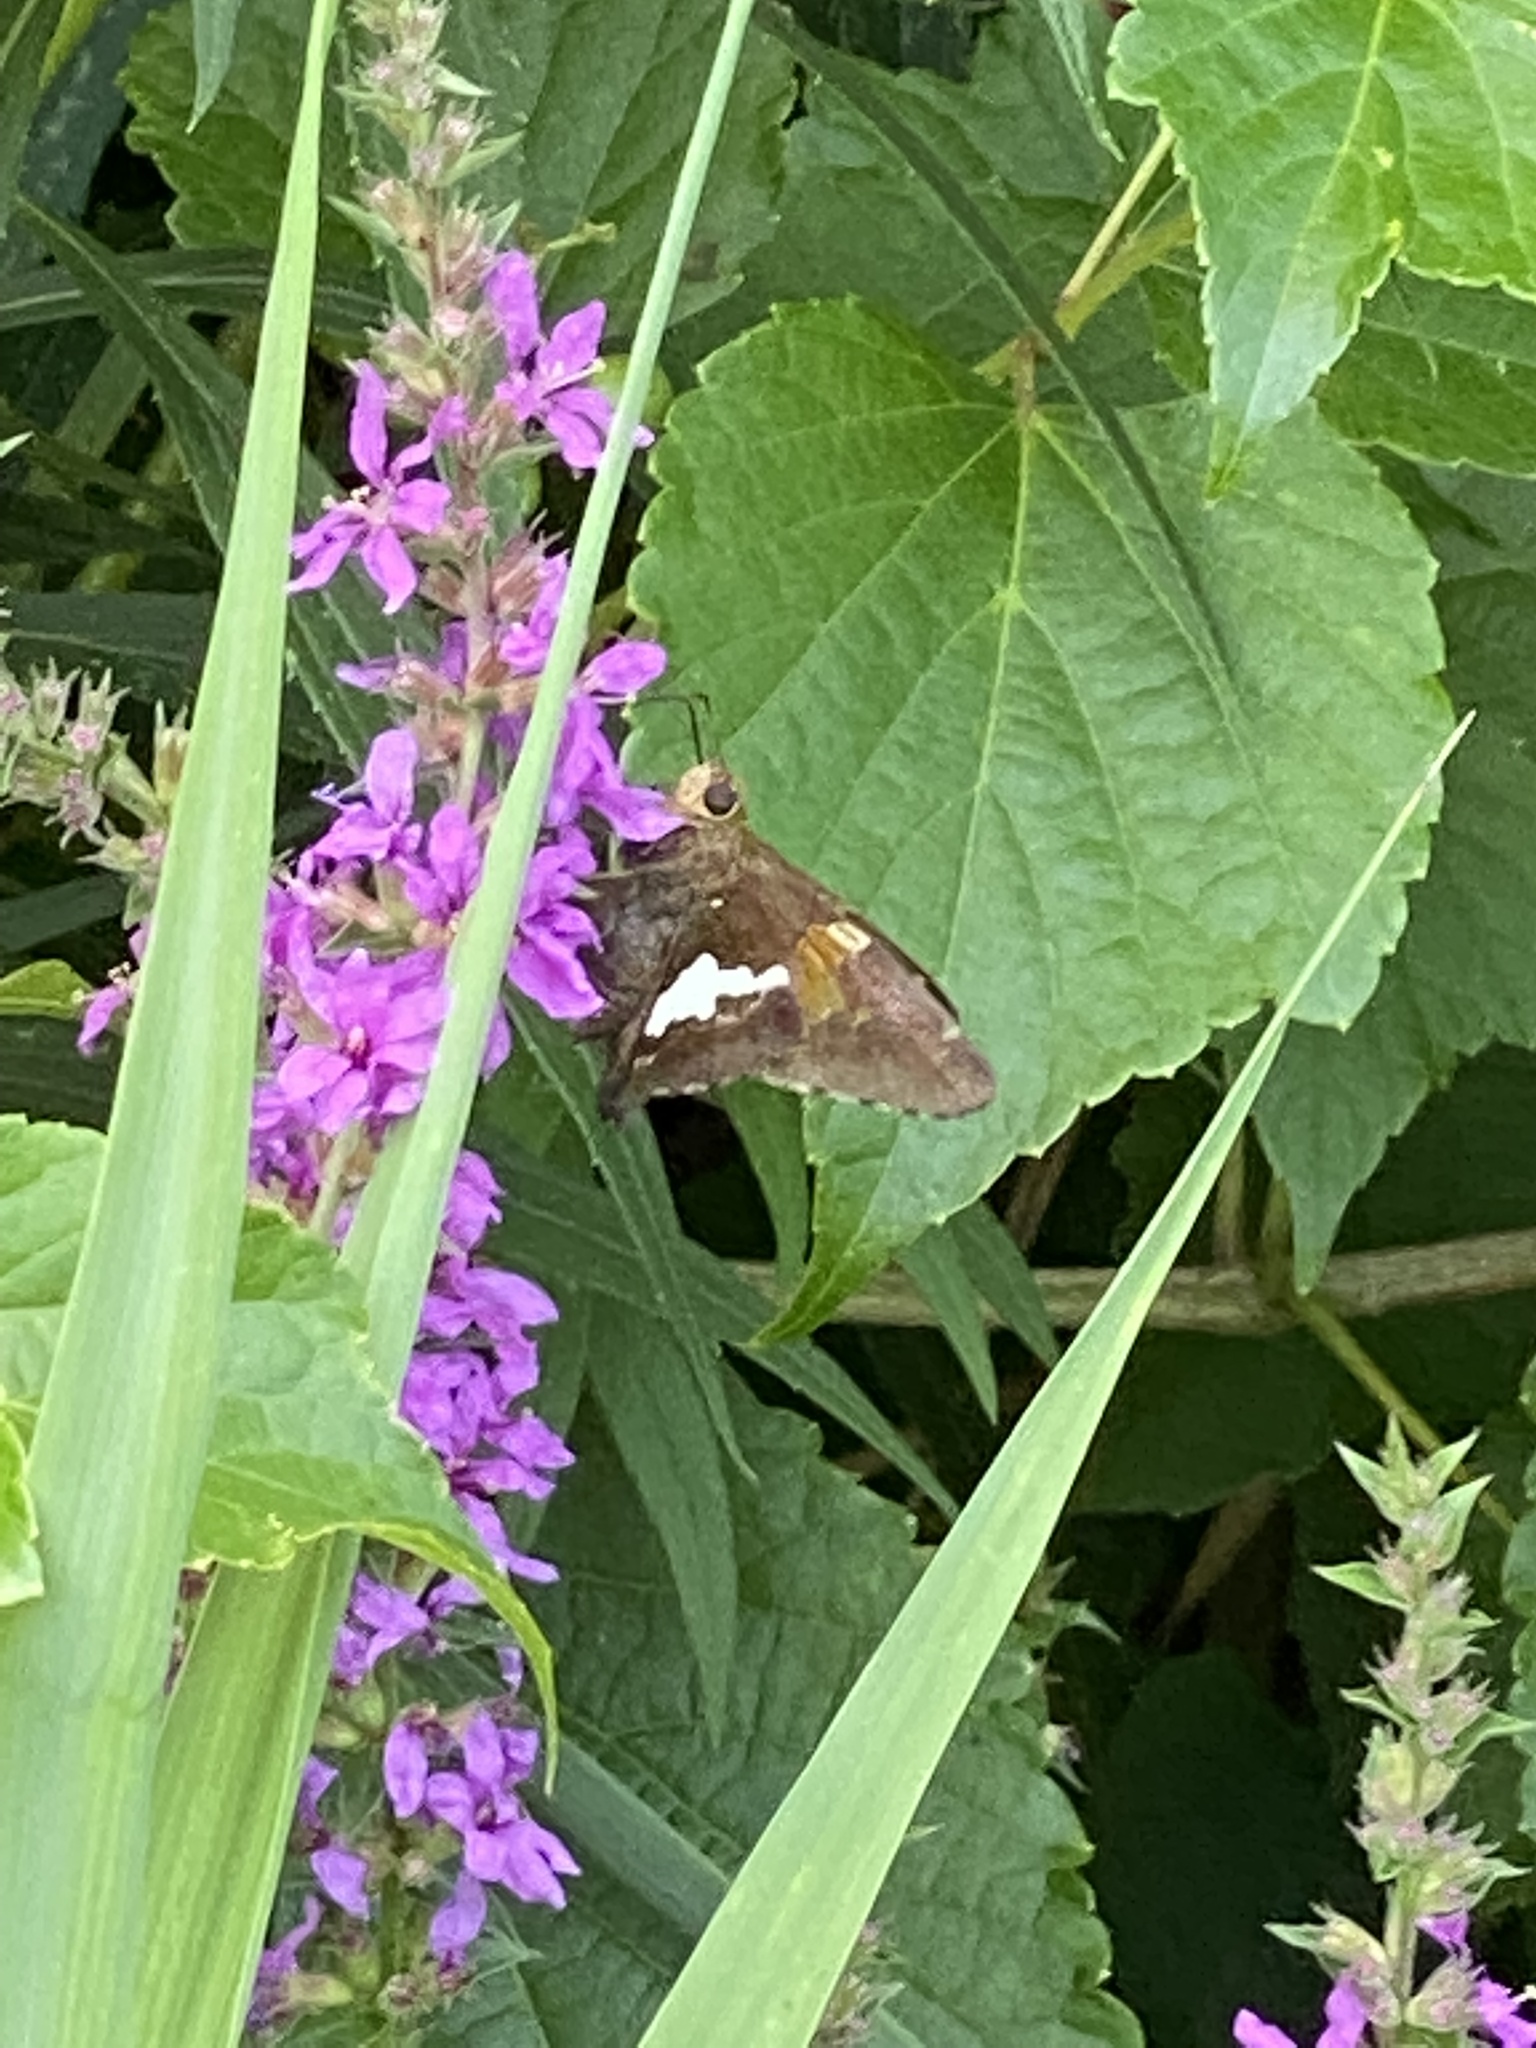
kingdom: Animalia
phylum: Arthropoda
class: Insecta
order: Lepidoptera
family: Hesperiidae
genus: Epargyreus
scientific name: Epargyreus clarus
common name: Silver-spotted skipper
